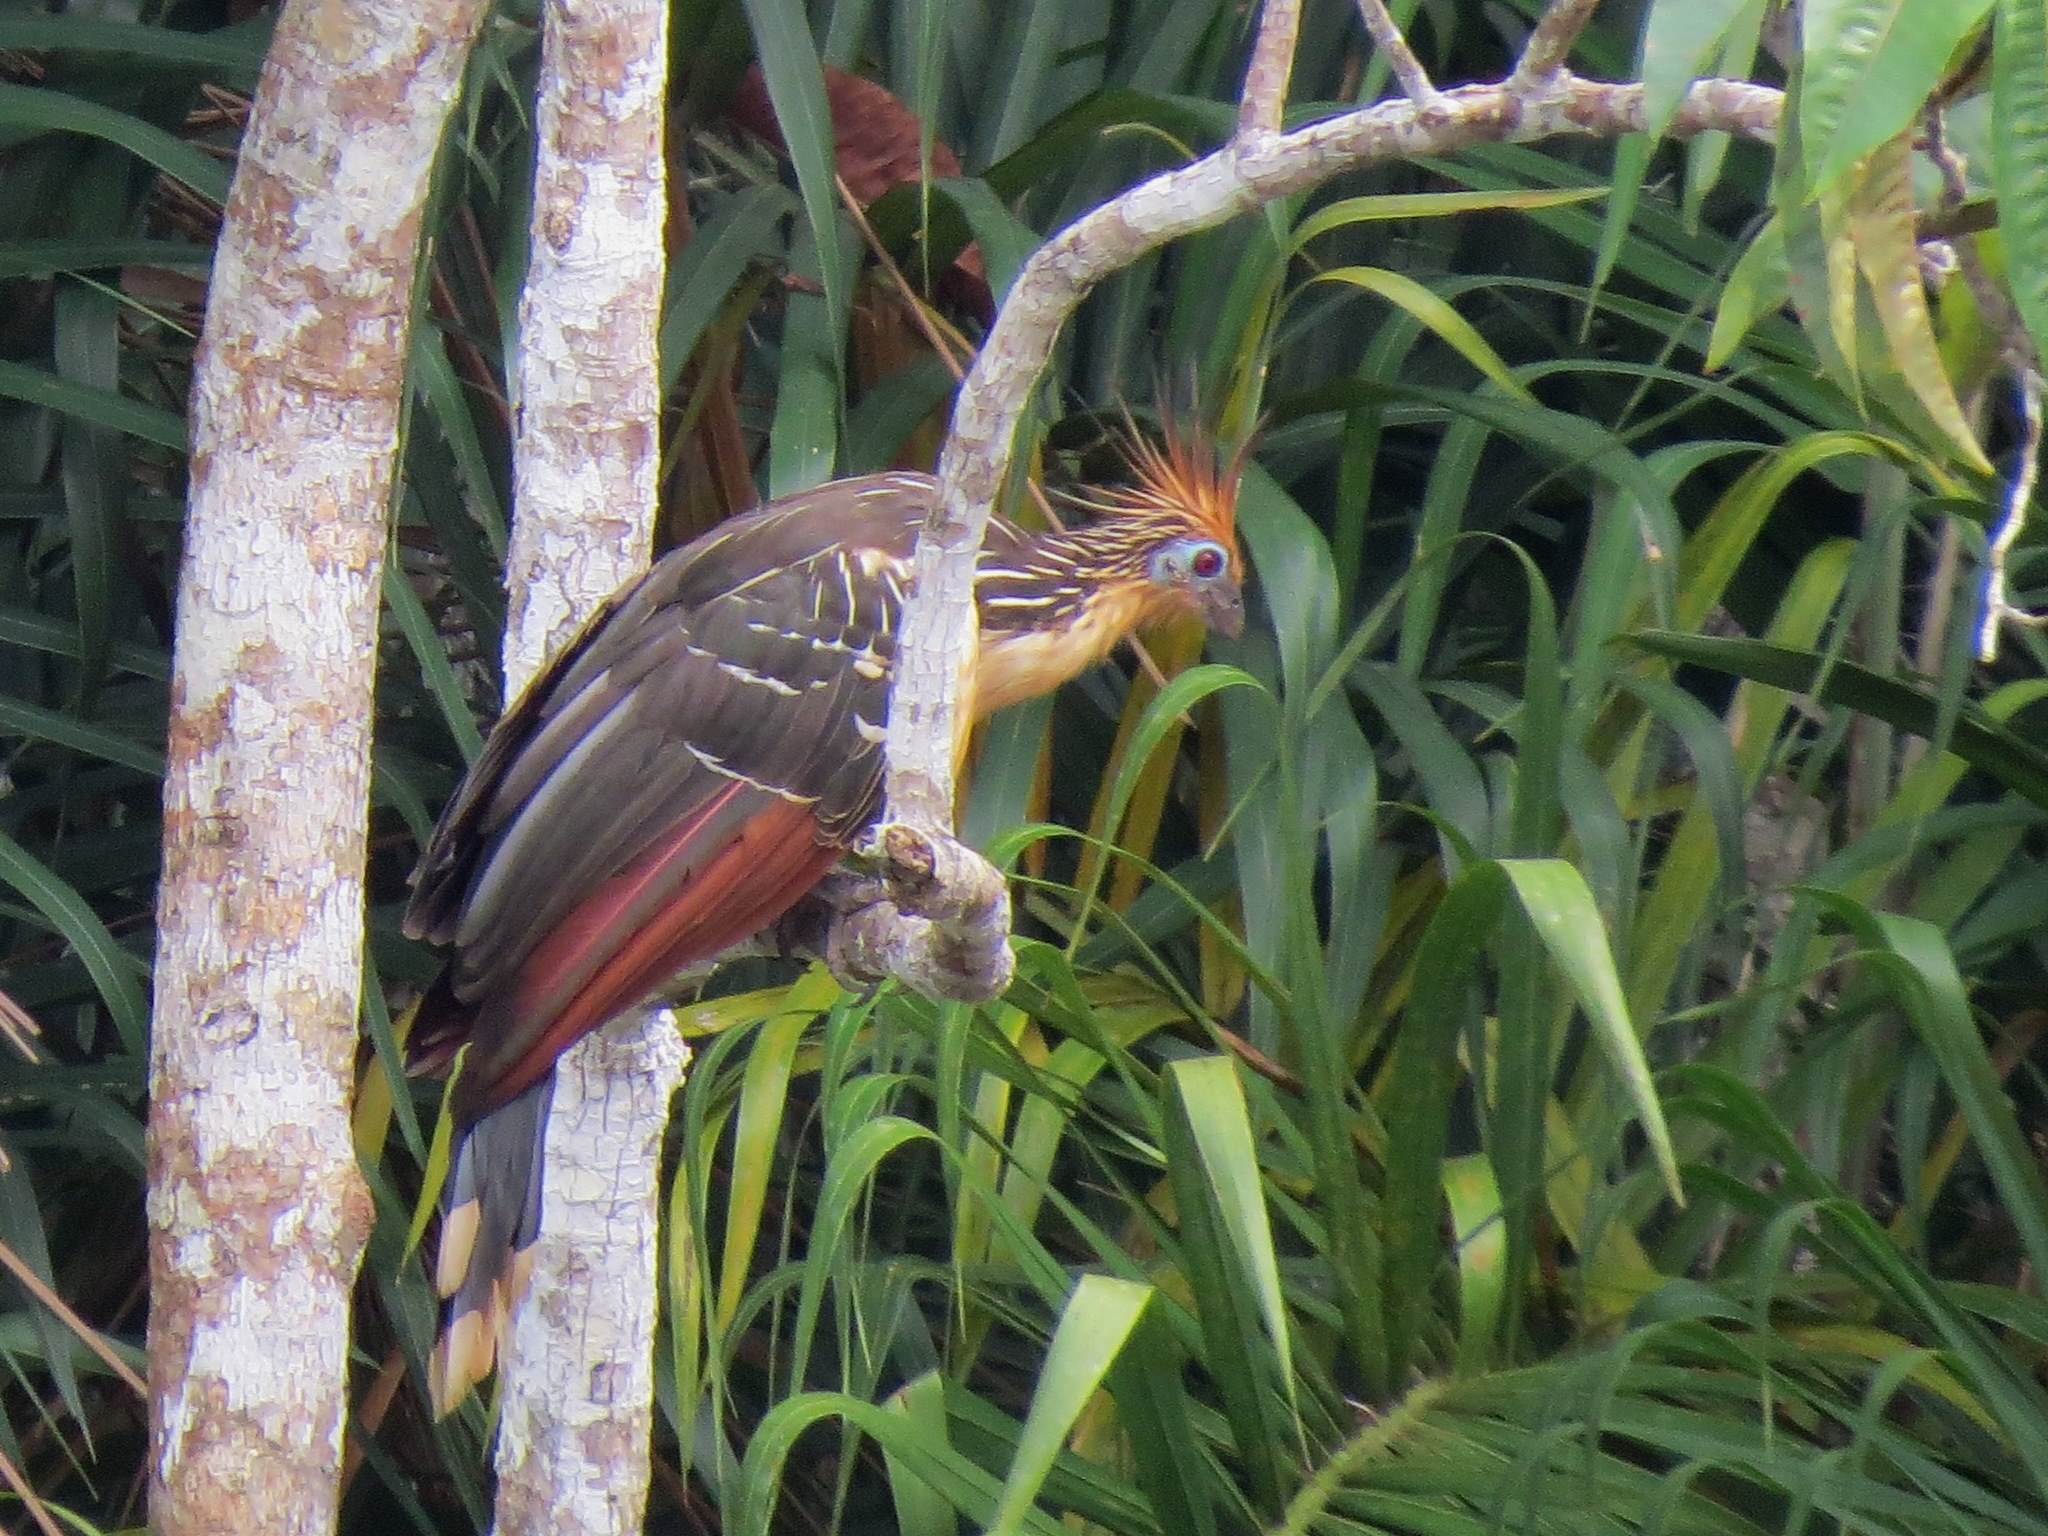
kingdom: Animalia
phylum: Chordata
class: Aves
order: Opisthocomiformes
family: Opisthocomidae
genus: Opisthocomus
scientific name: Opisthocomus hoazin
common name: Hoatzin
